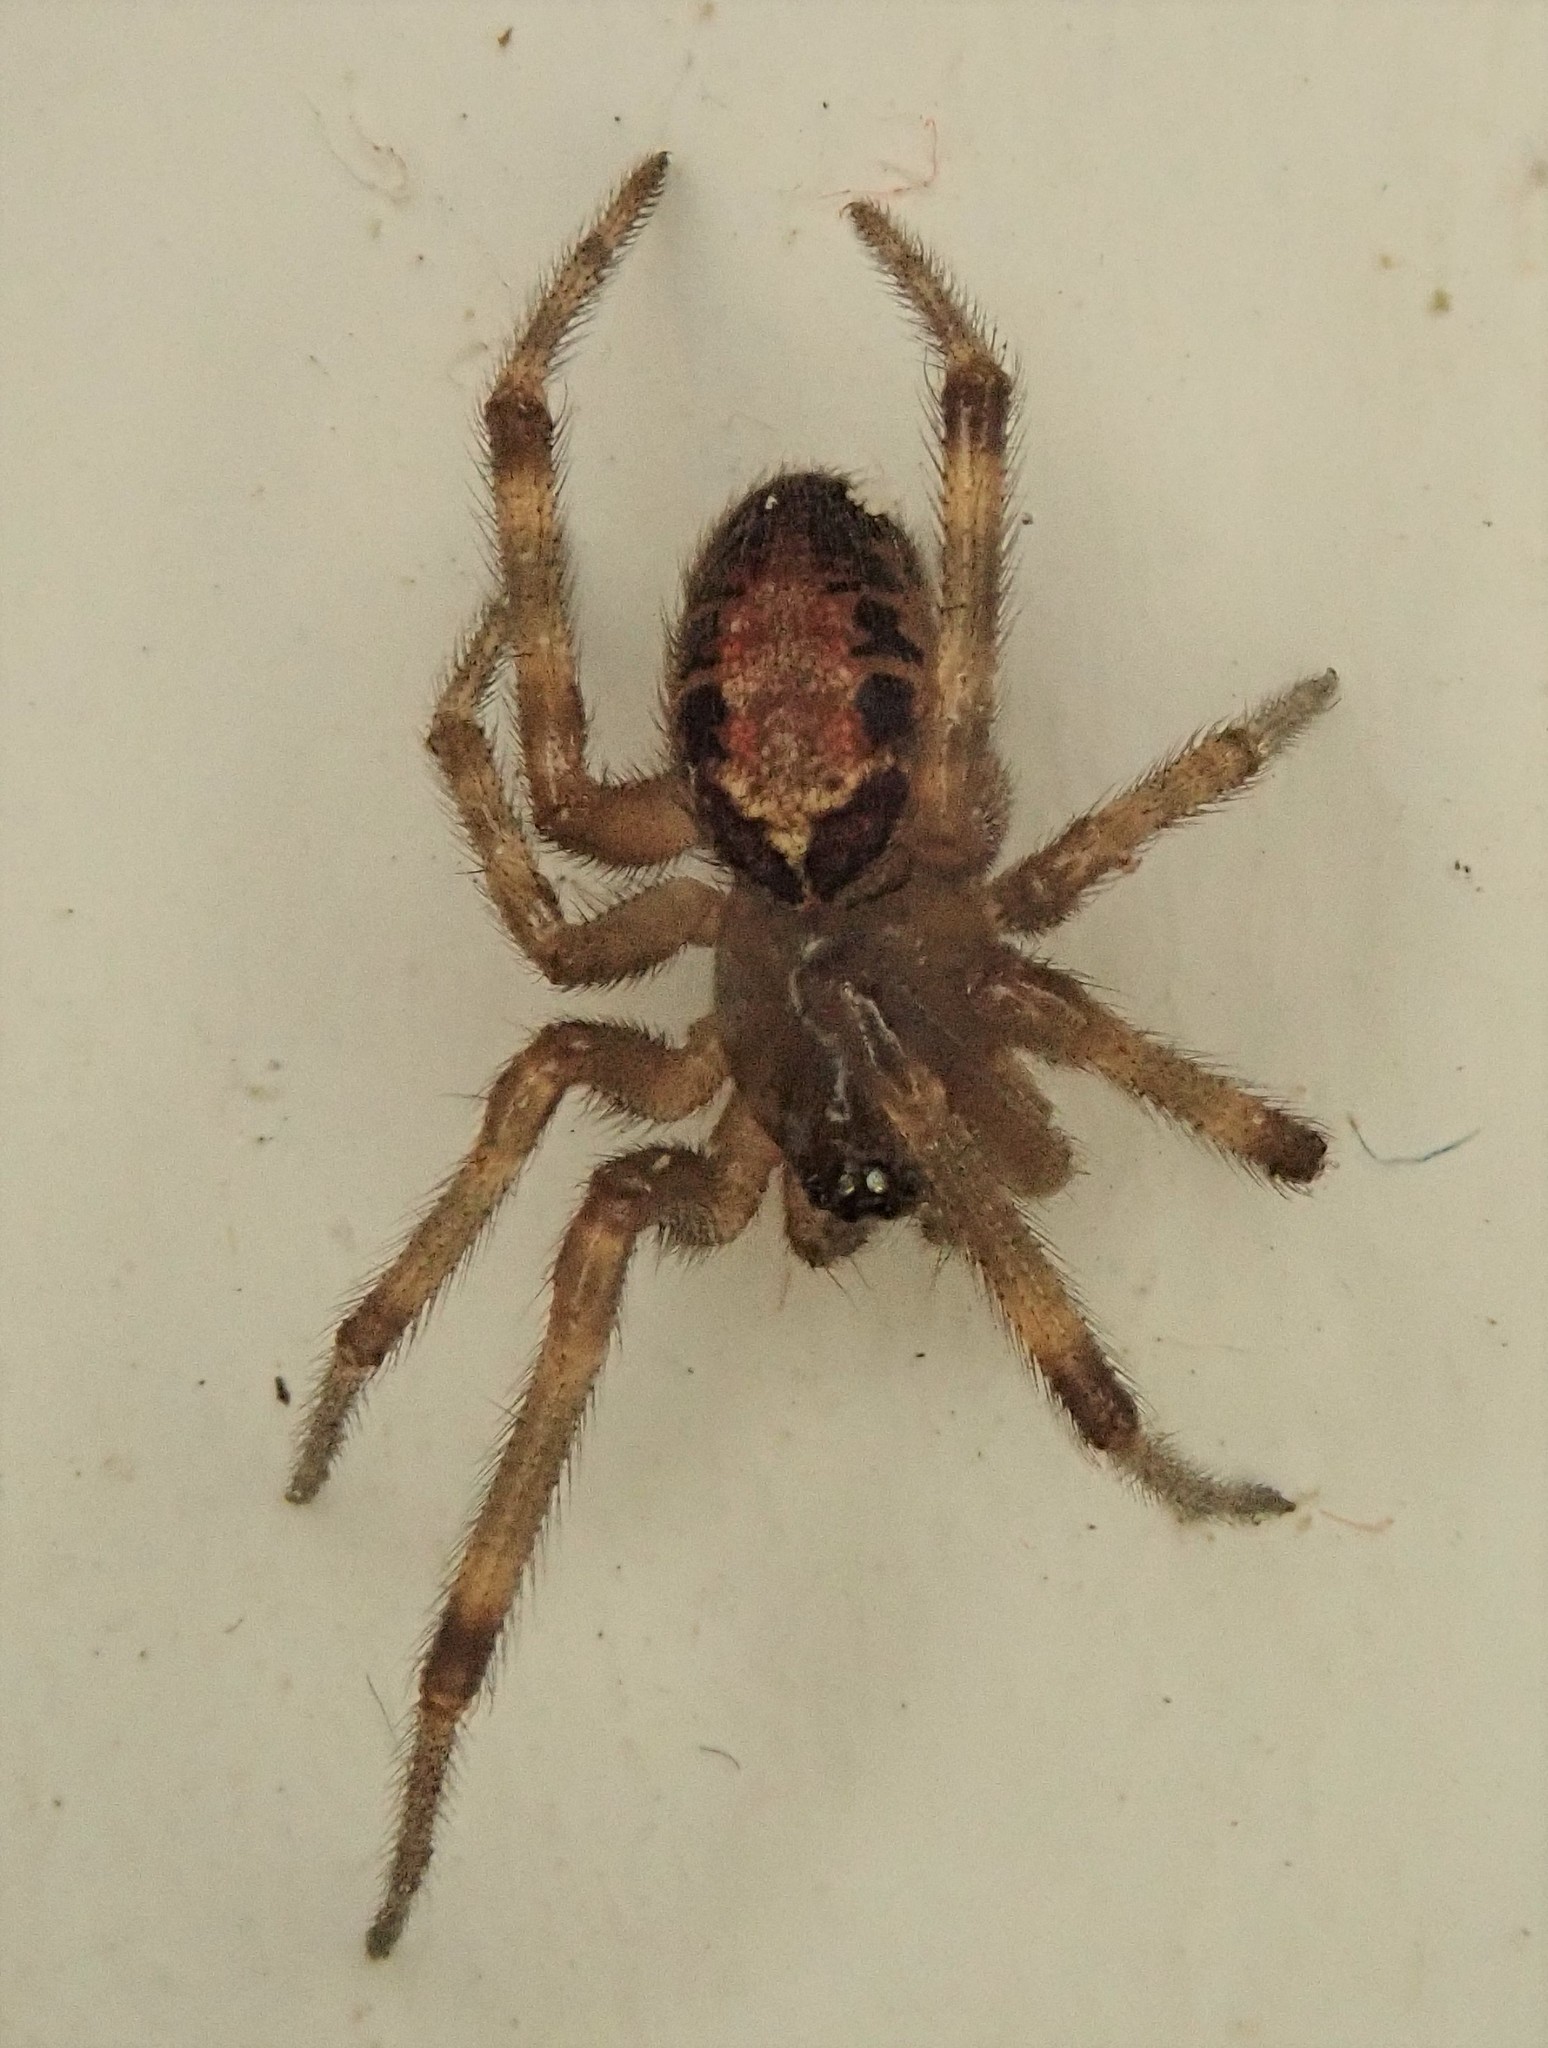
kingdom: Animalia
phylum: Arthropoda
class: Arachnida
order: Araneae
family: Theridiidae
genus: Steatoda
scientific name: Steatoda nobilis
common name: Cobweb weaver
